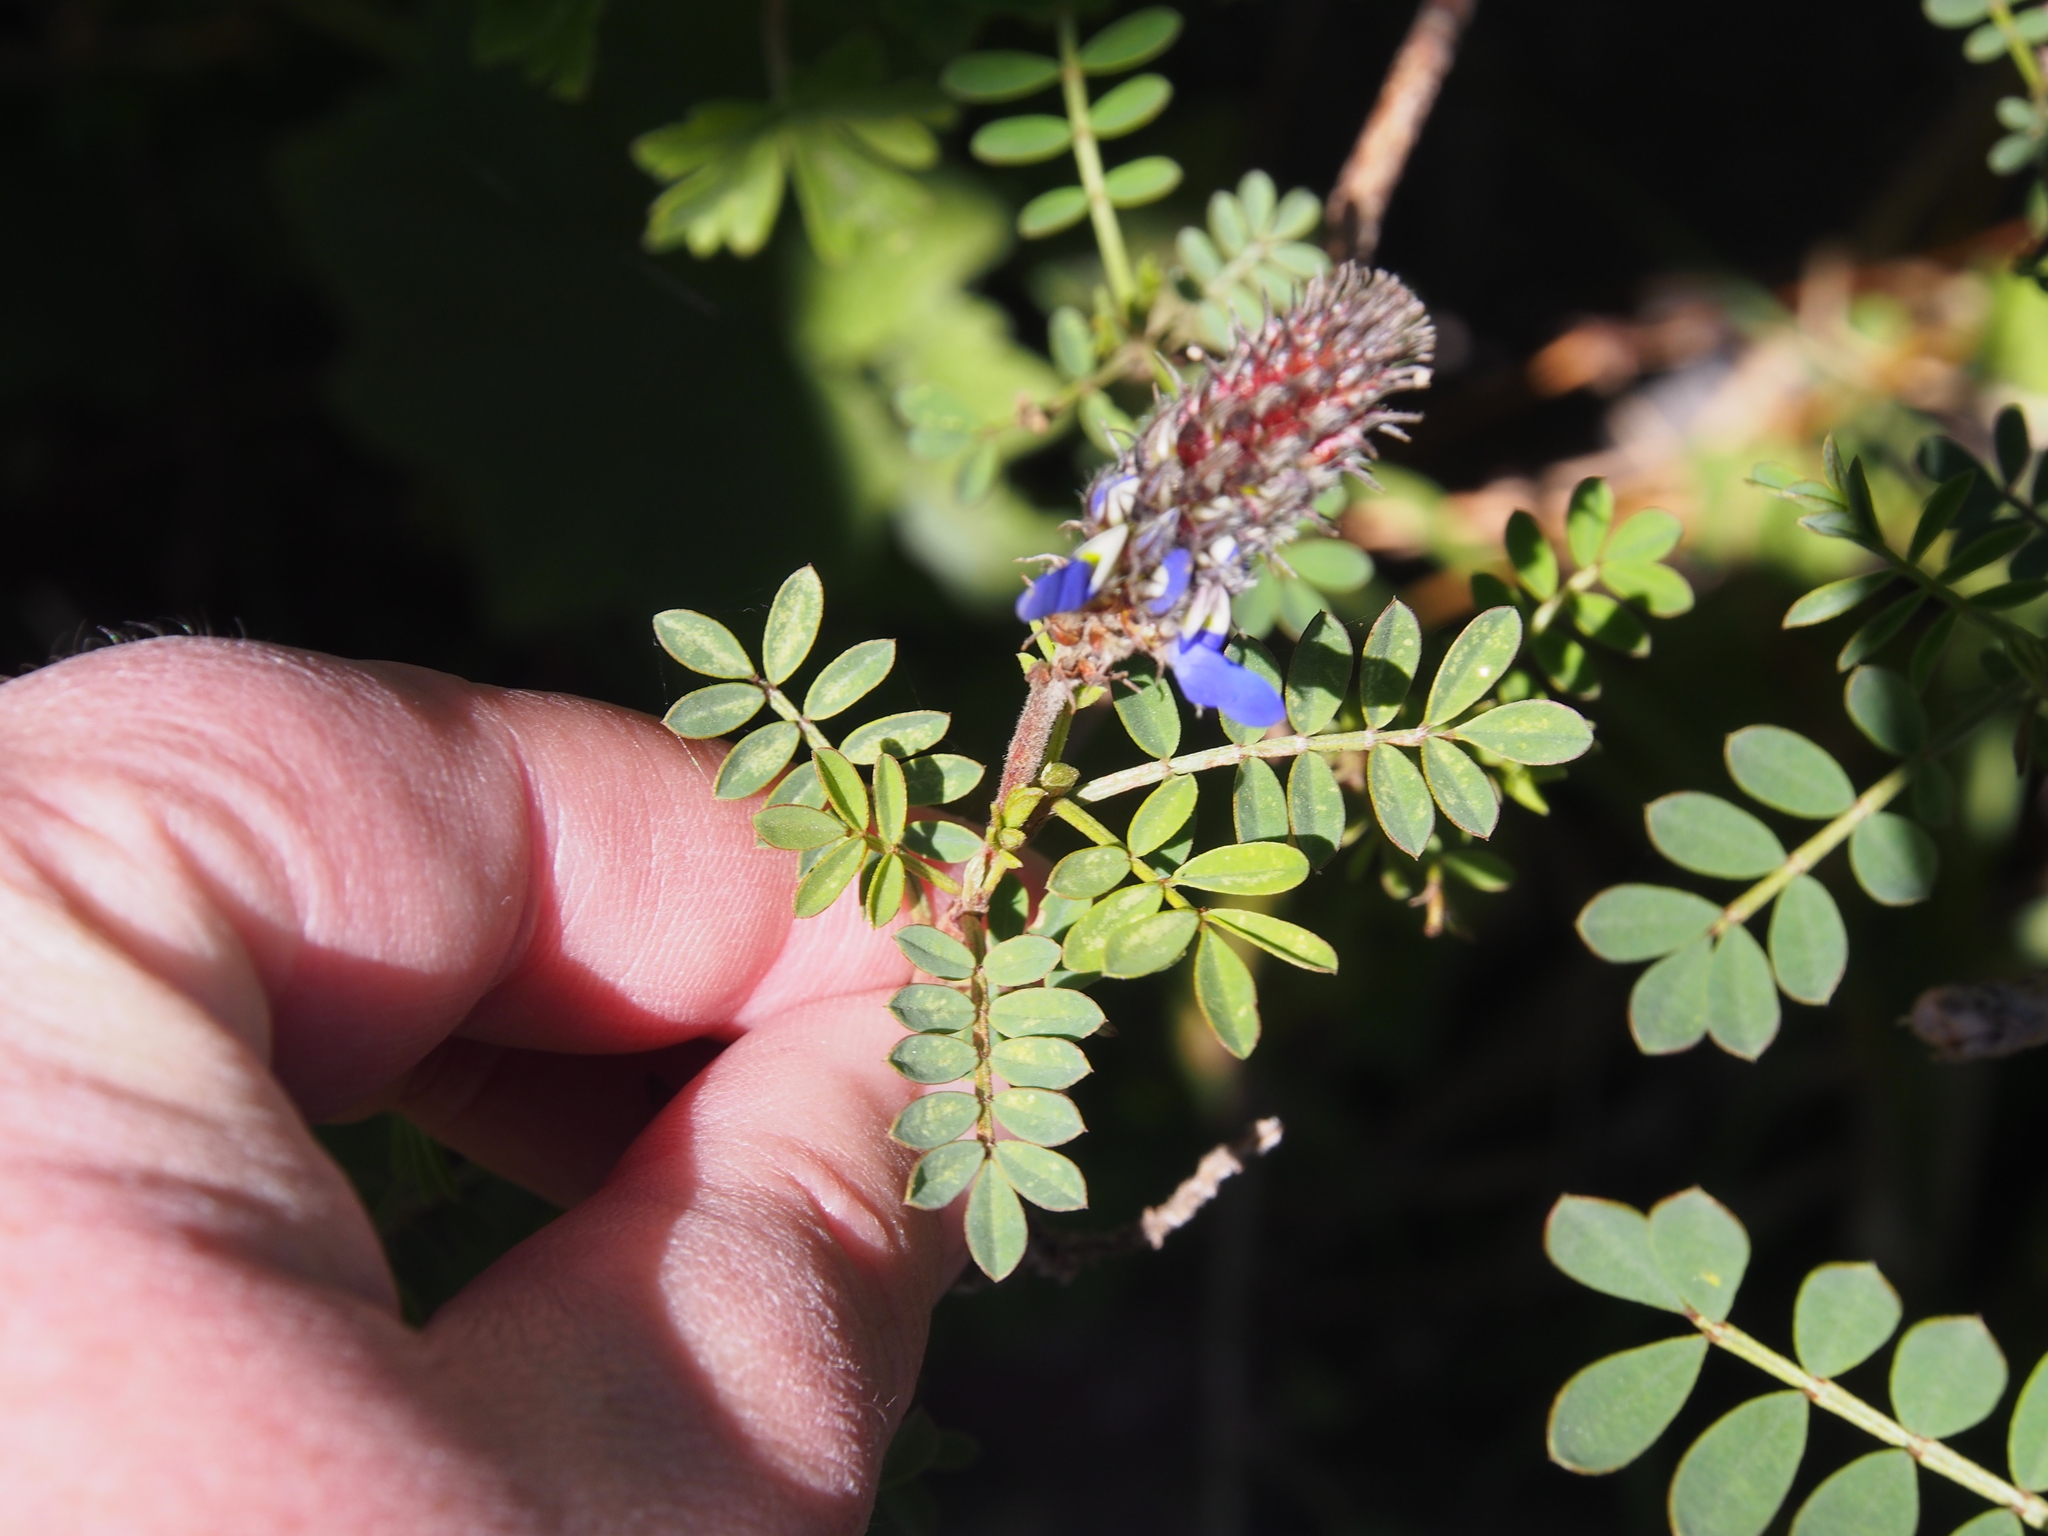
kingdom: Plantae
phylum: Tracheophyta
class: Magnoliopsida
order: Fabales
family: Fabaceae
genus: Dalea
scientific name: Dalea coerulea
